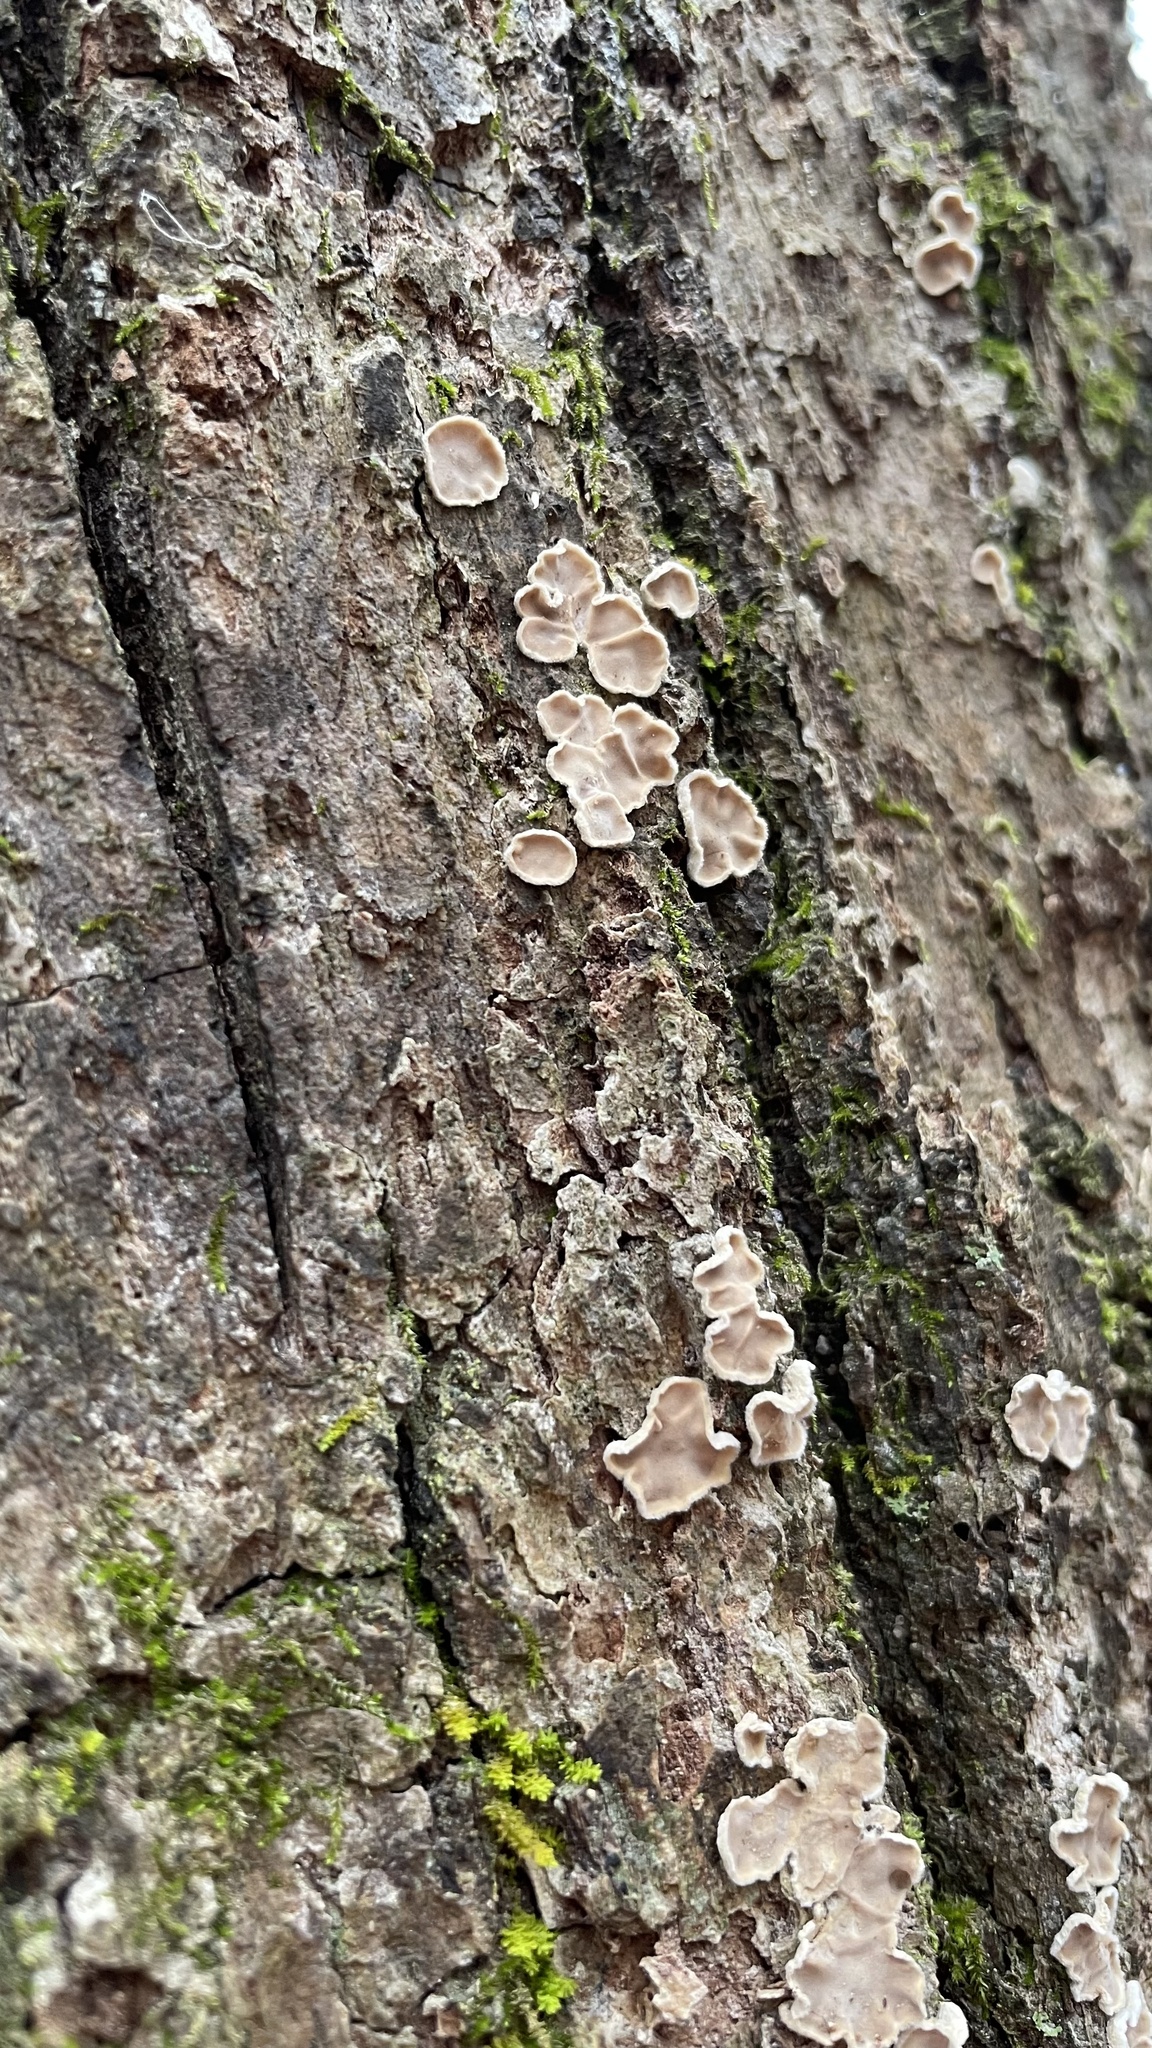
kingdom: Fungi
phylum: Basidiomycota
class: Agaricomycetes
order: Russulales
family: Stereaceae
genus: Acanthophysium
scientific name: Acanthophysium oakesii
